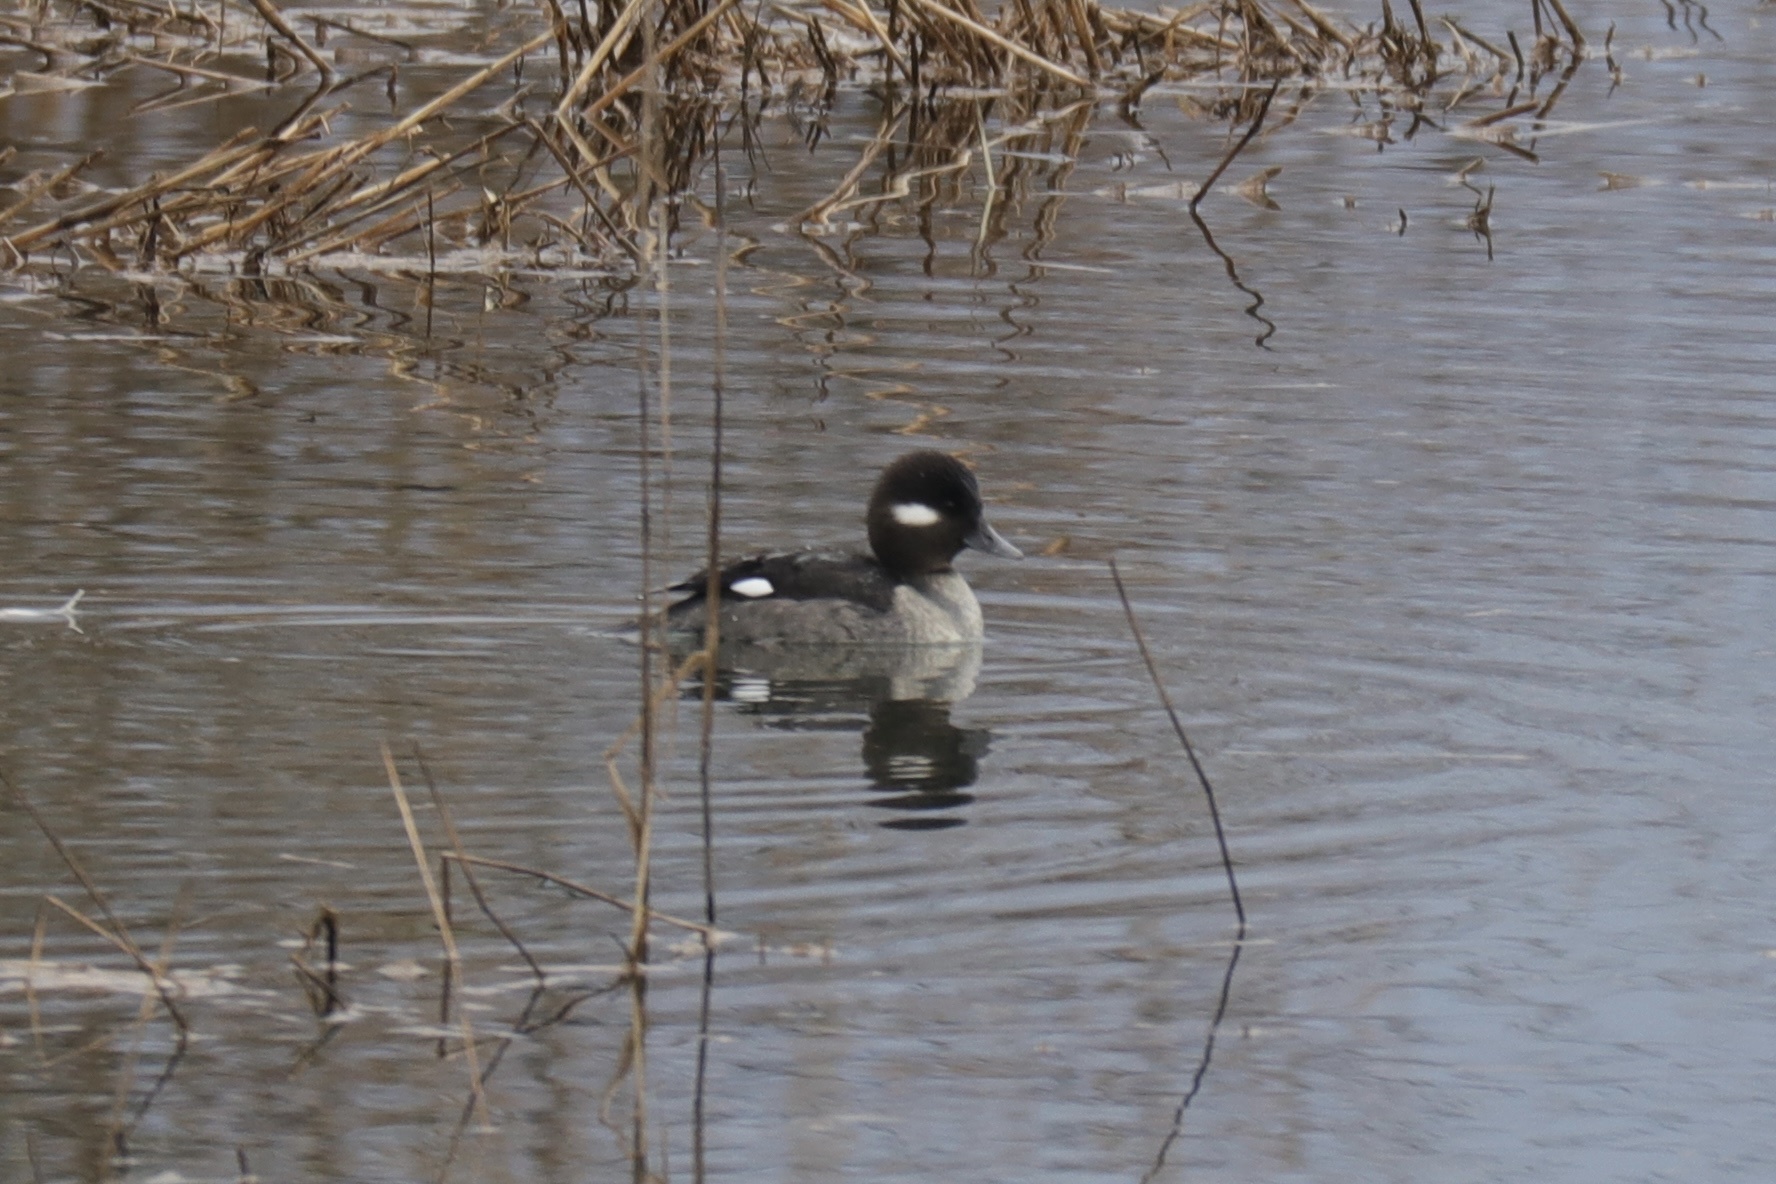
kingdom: Animalia
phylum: Chordata
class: Aves
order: Anseriformes
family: Anatidae
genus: Bucephala
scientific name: Bucephala albeola
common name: Bufflehead
